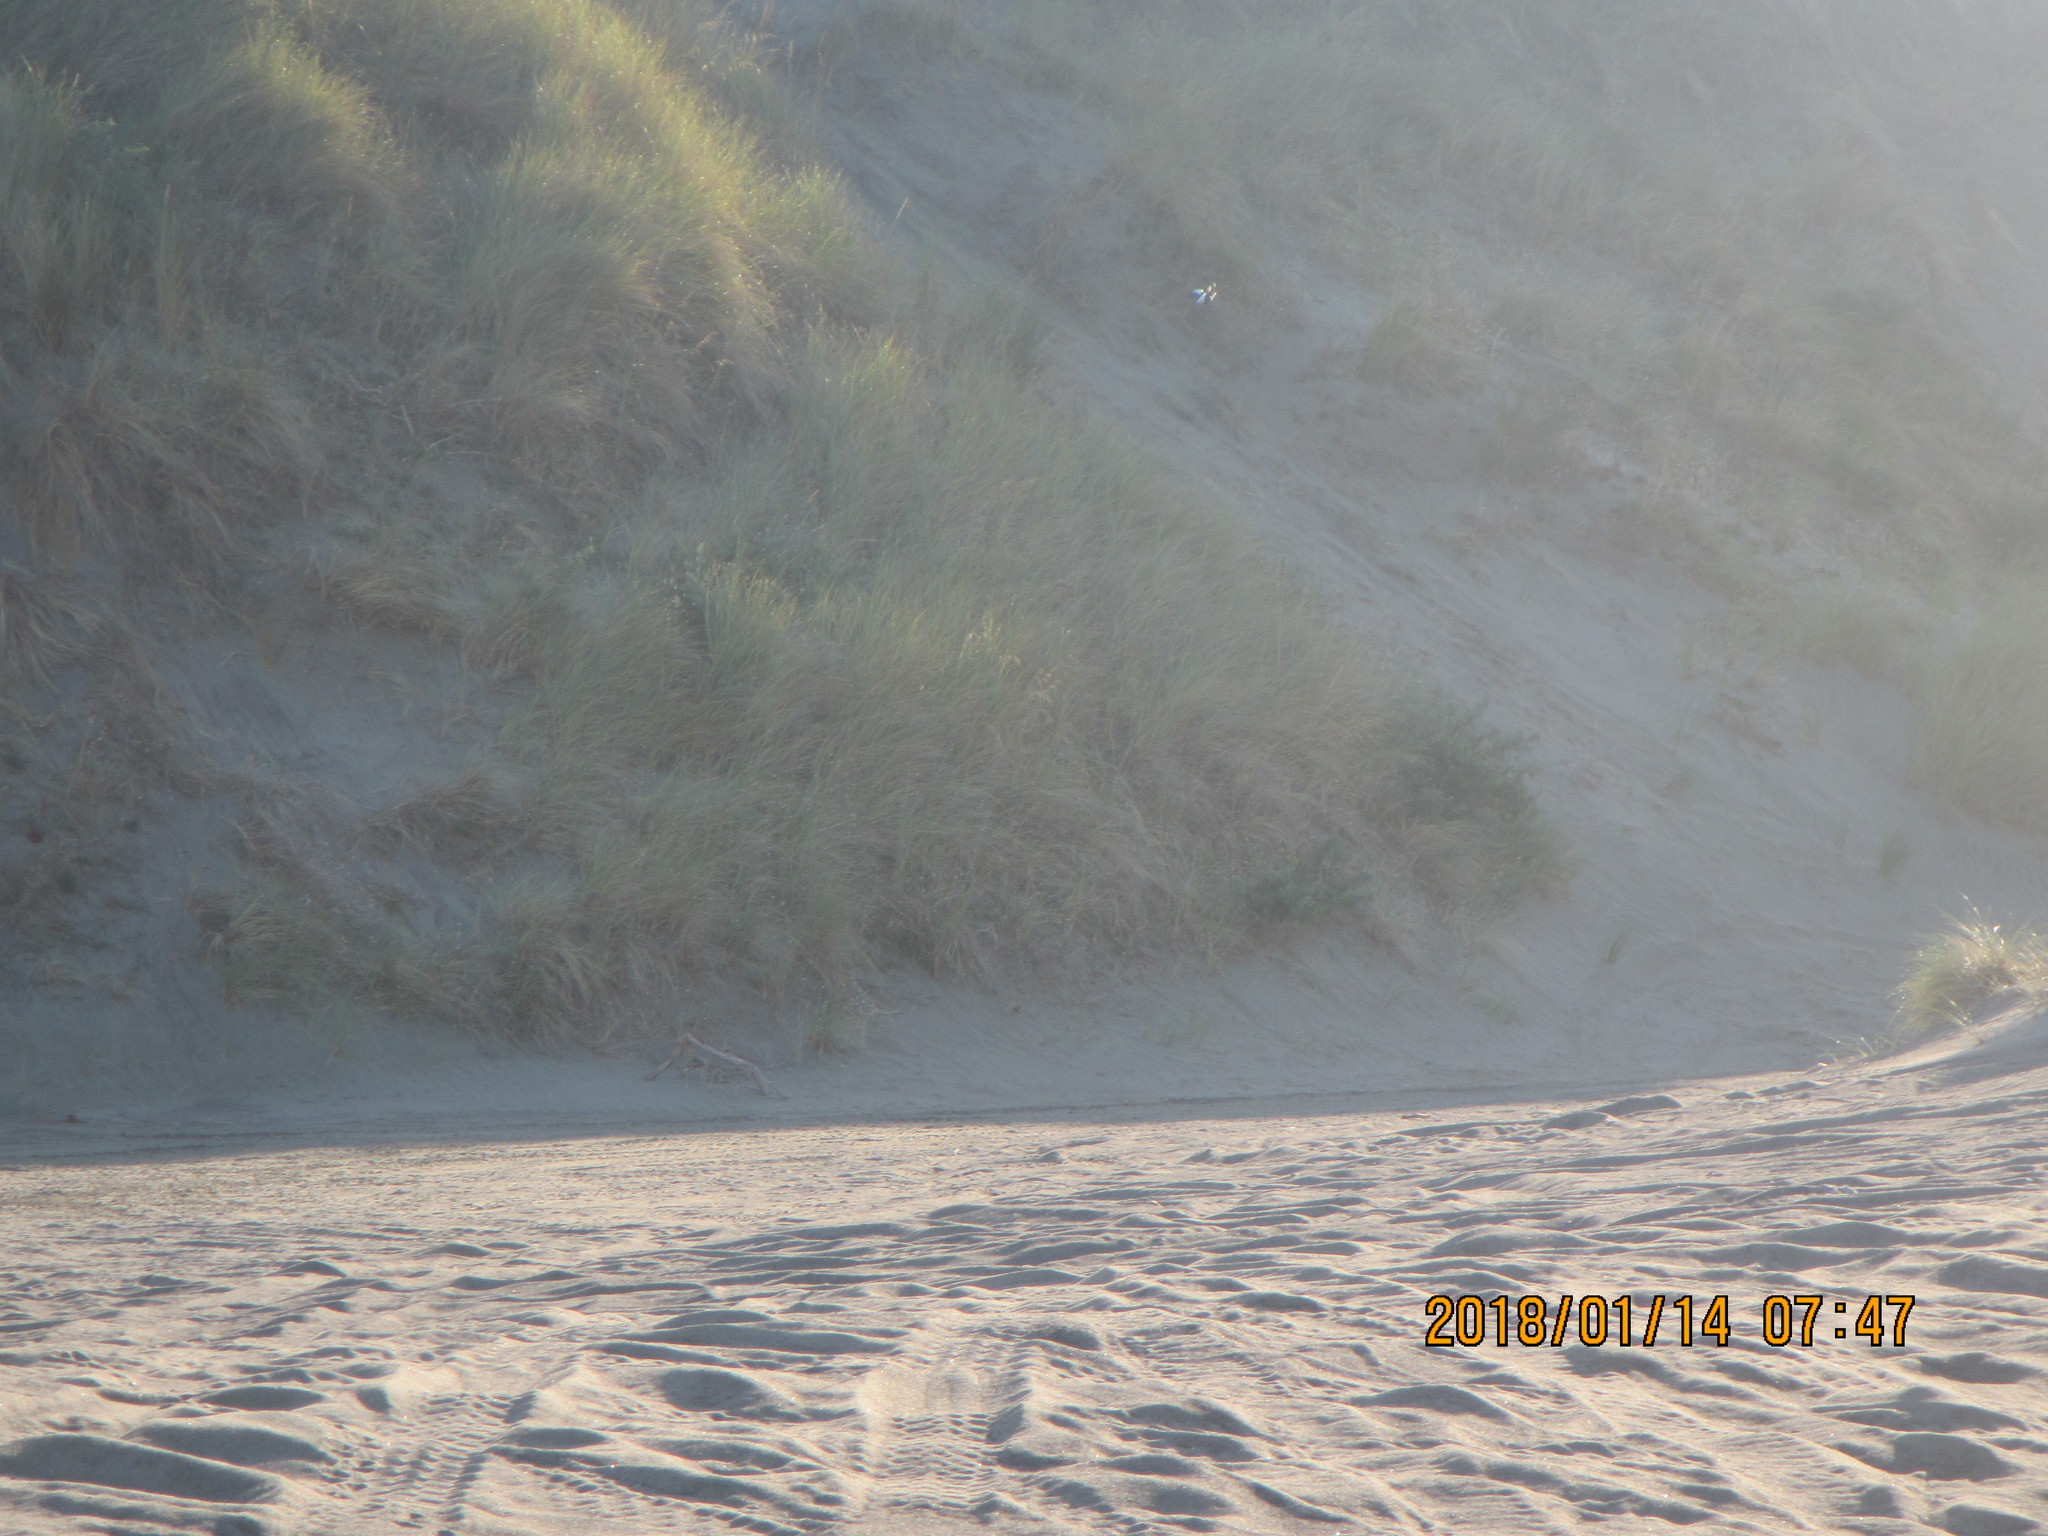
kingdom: Animalia
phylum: Chordata
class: Aves
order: Passeriformes
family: Cracticidae
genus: Gymnorhina
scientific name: Gymnorhina tibicen
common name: Australian magpie
